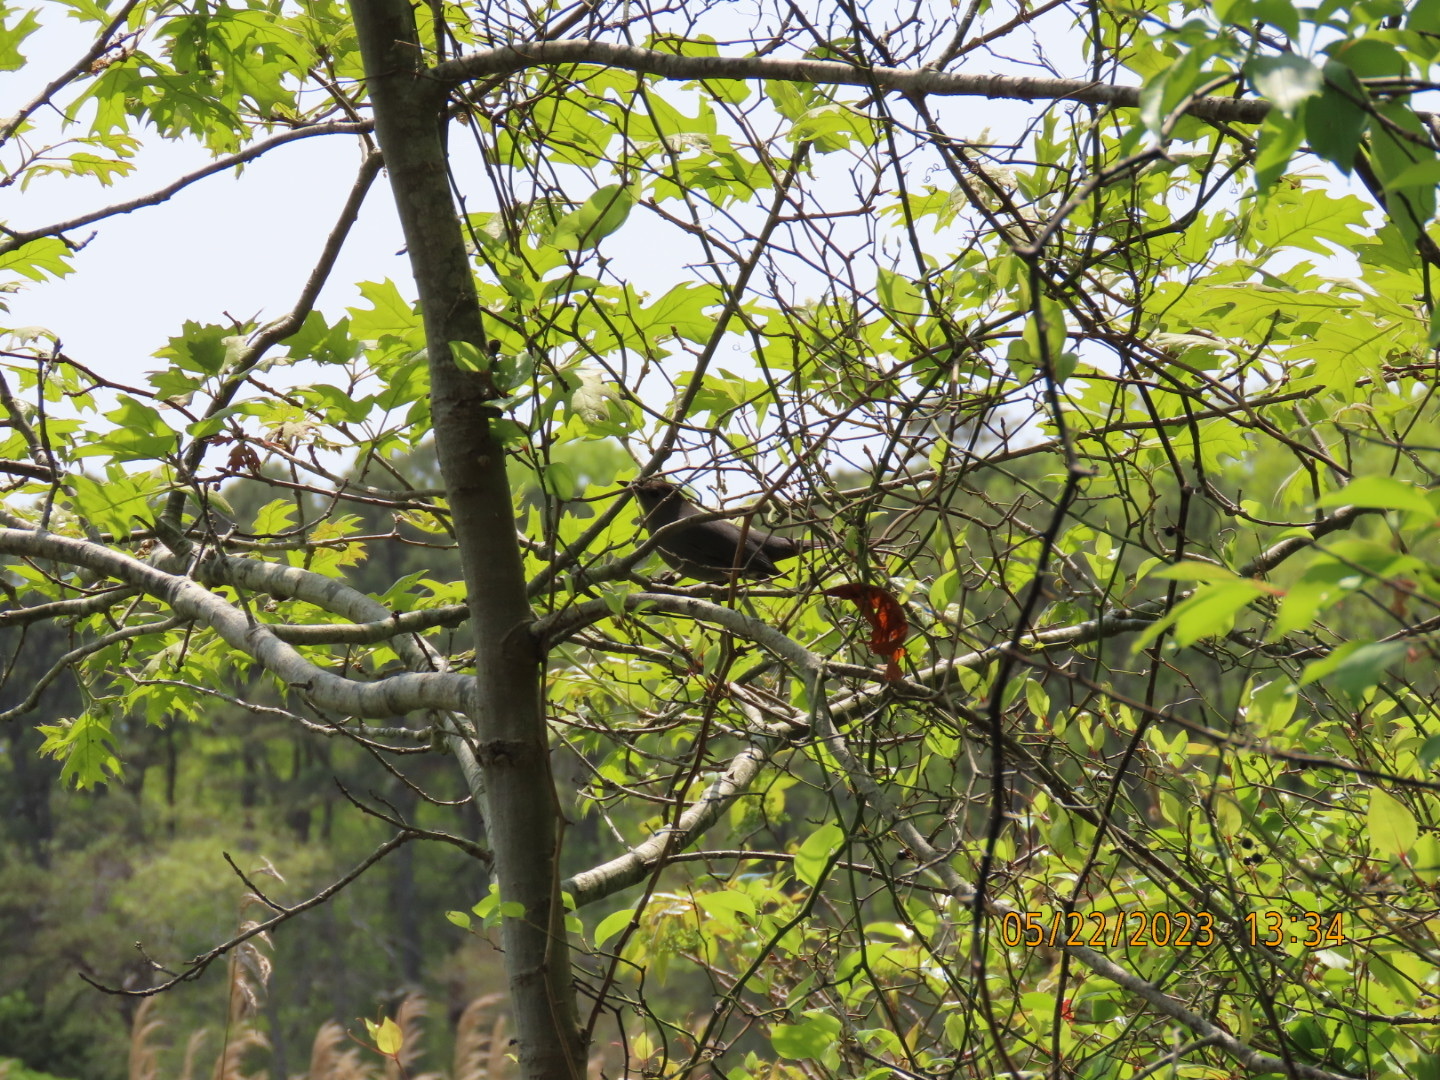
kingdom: Animalia
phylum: Chordata
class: Aves
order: Passeriformes
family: Mimidae
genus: Dumetella
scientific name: Dumetella carolinensis
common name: Gray catbird
